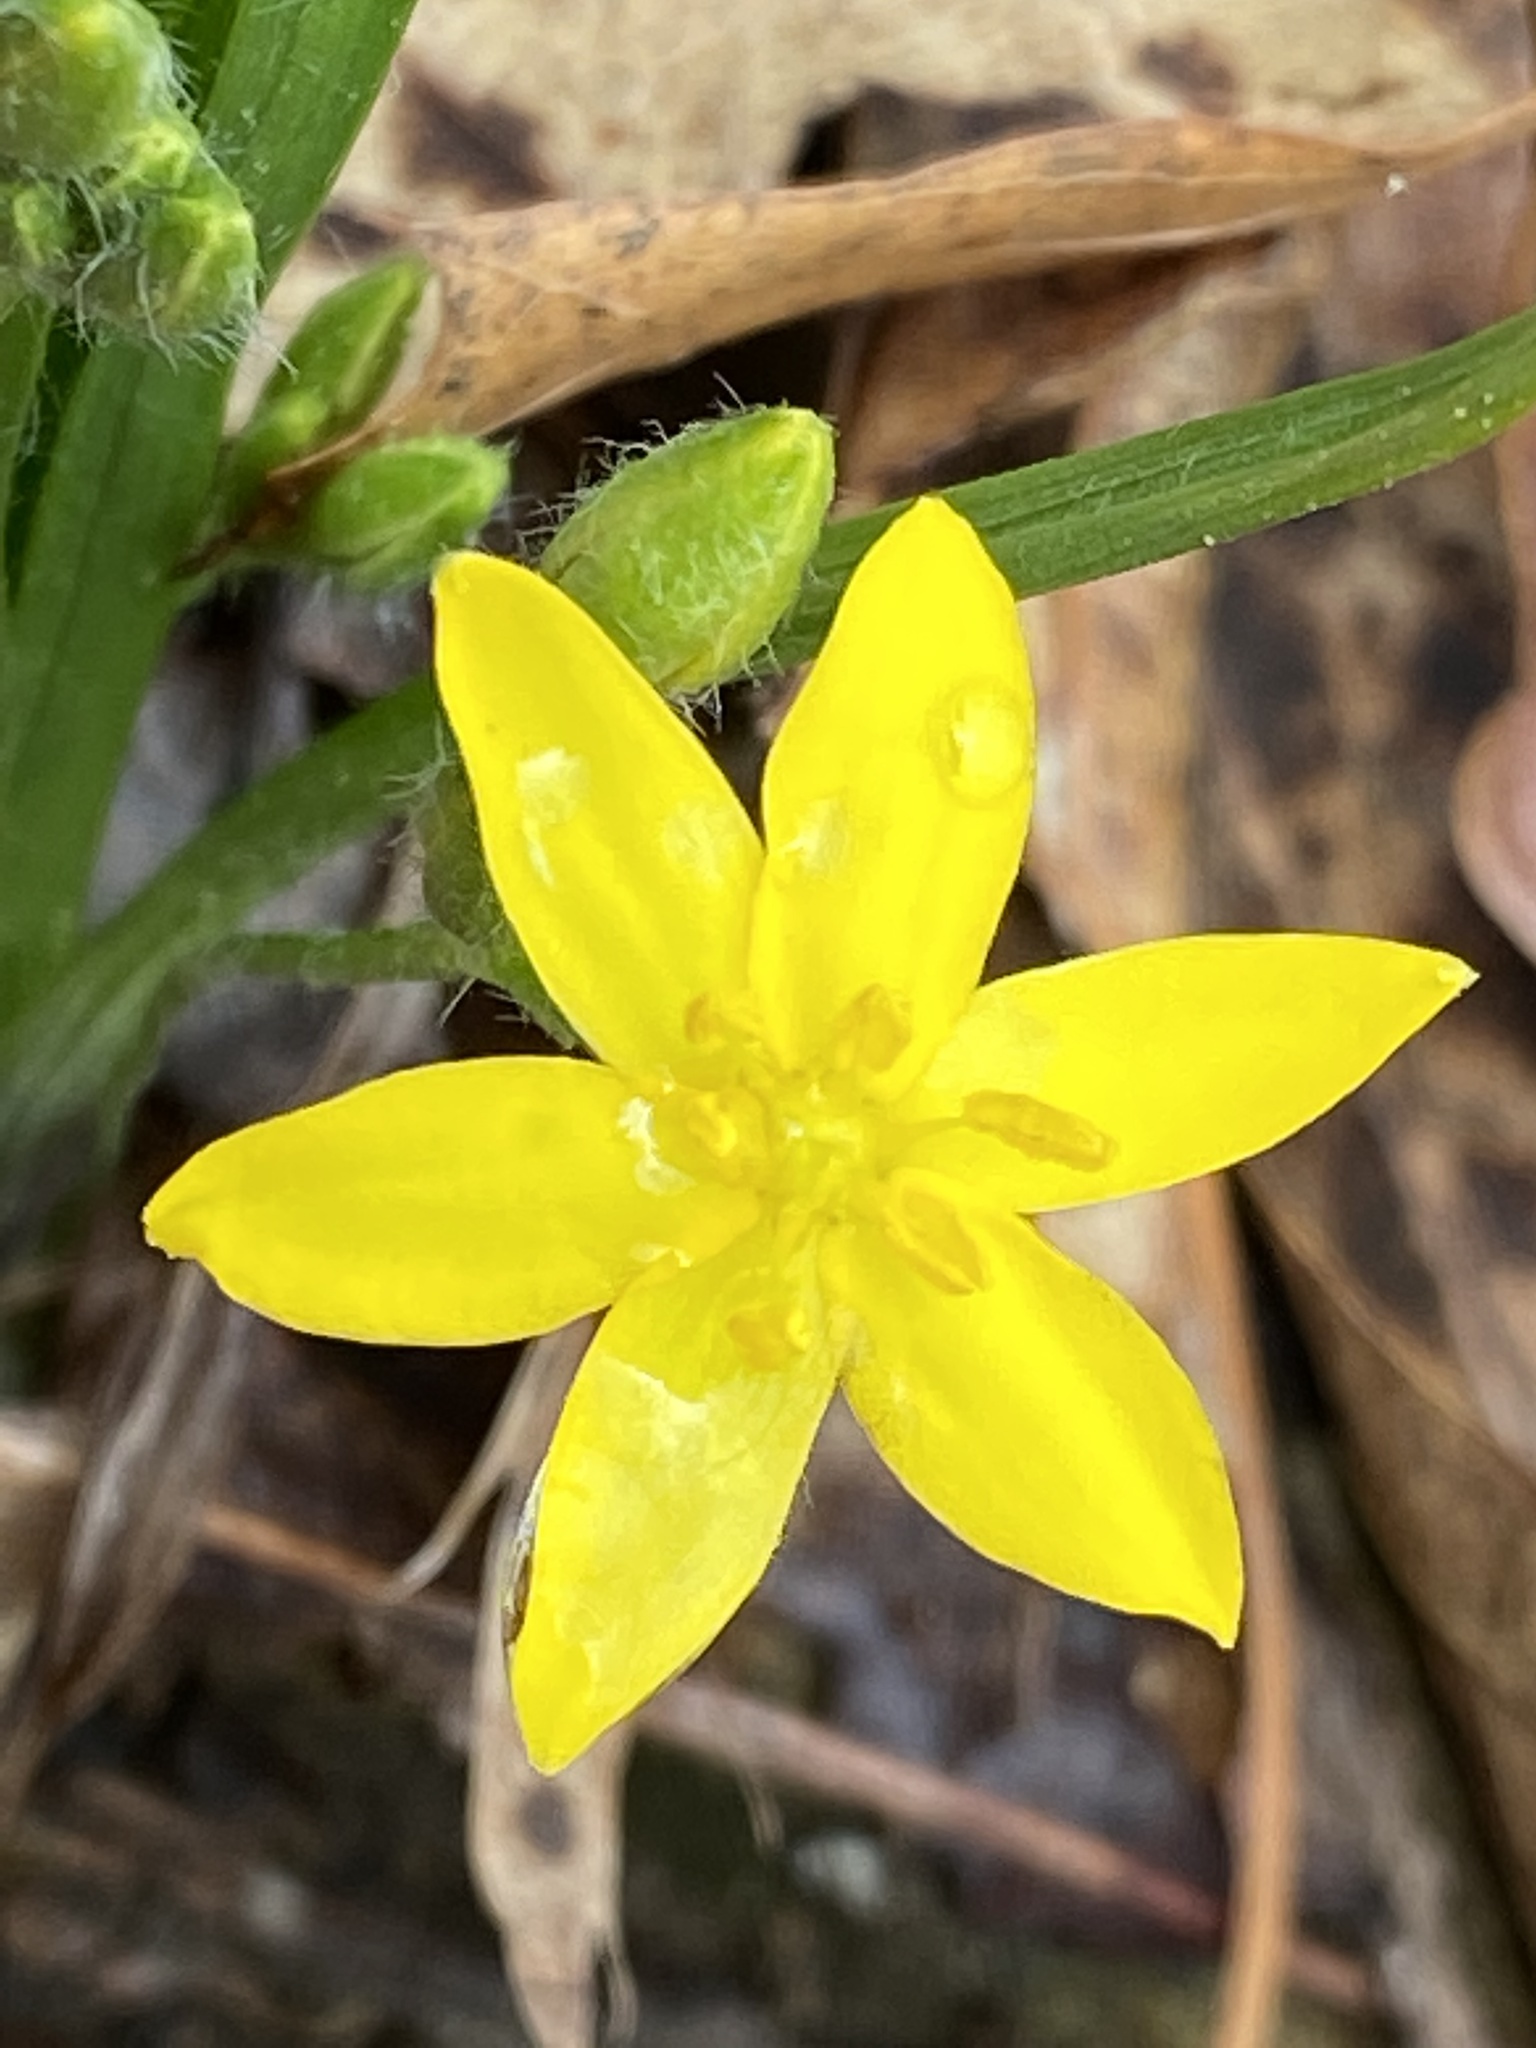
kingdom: Plantae
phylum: Tracheophyta
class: Liliopsida
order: Asparagales
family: Hypoxidaceae
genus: Hypoxis
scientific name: Hypoxis hirsuta
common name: Common goldstar
